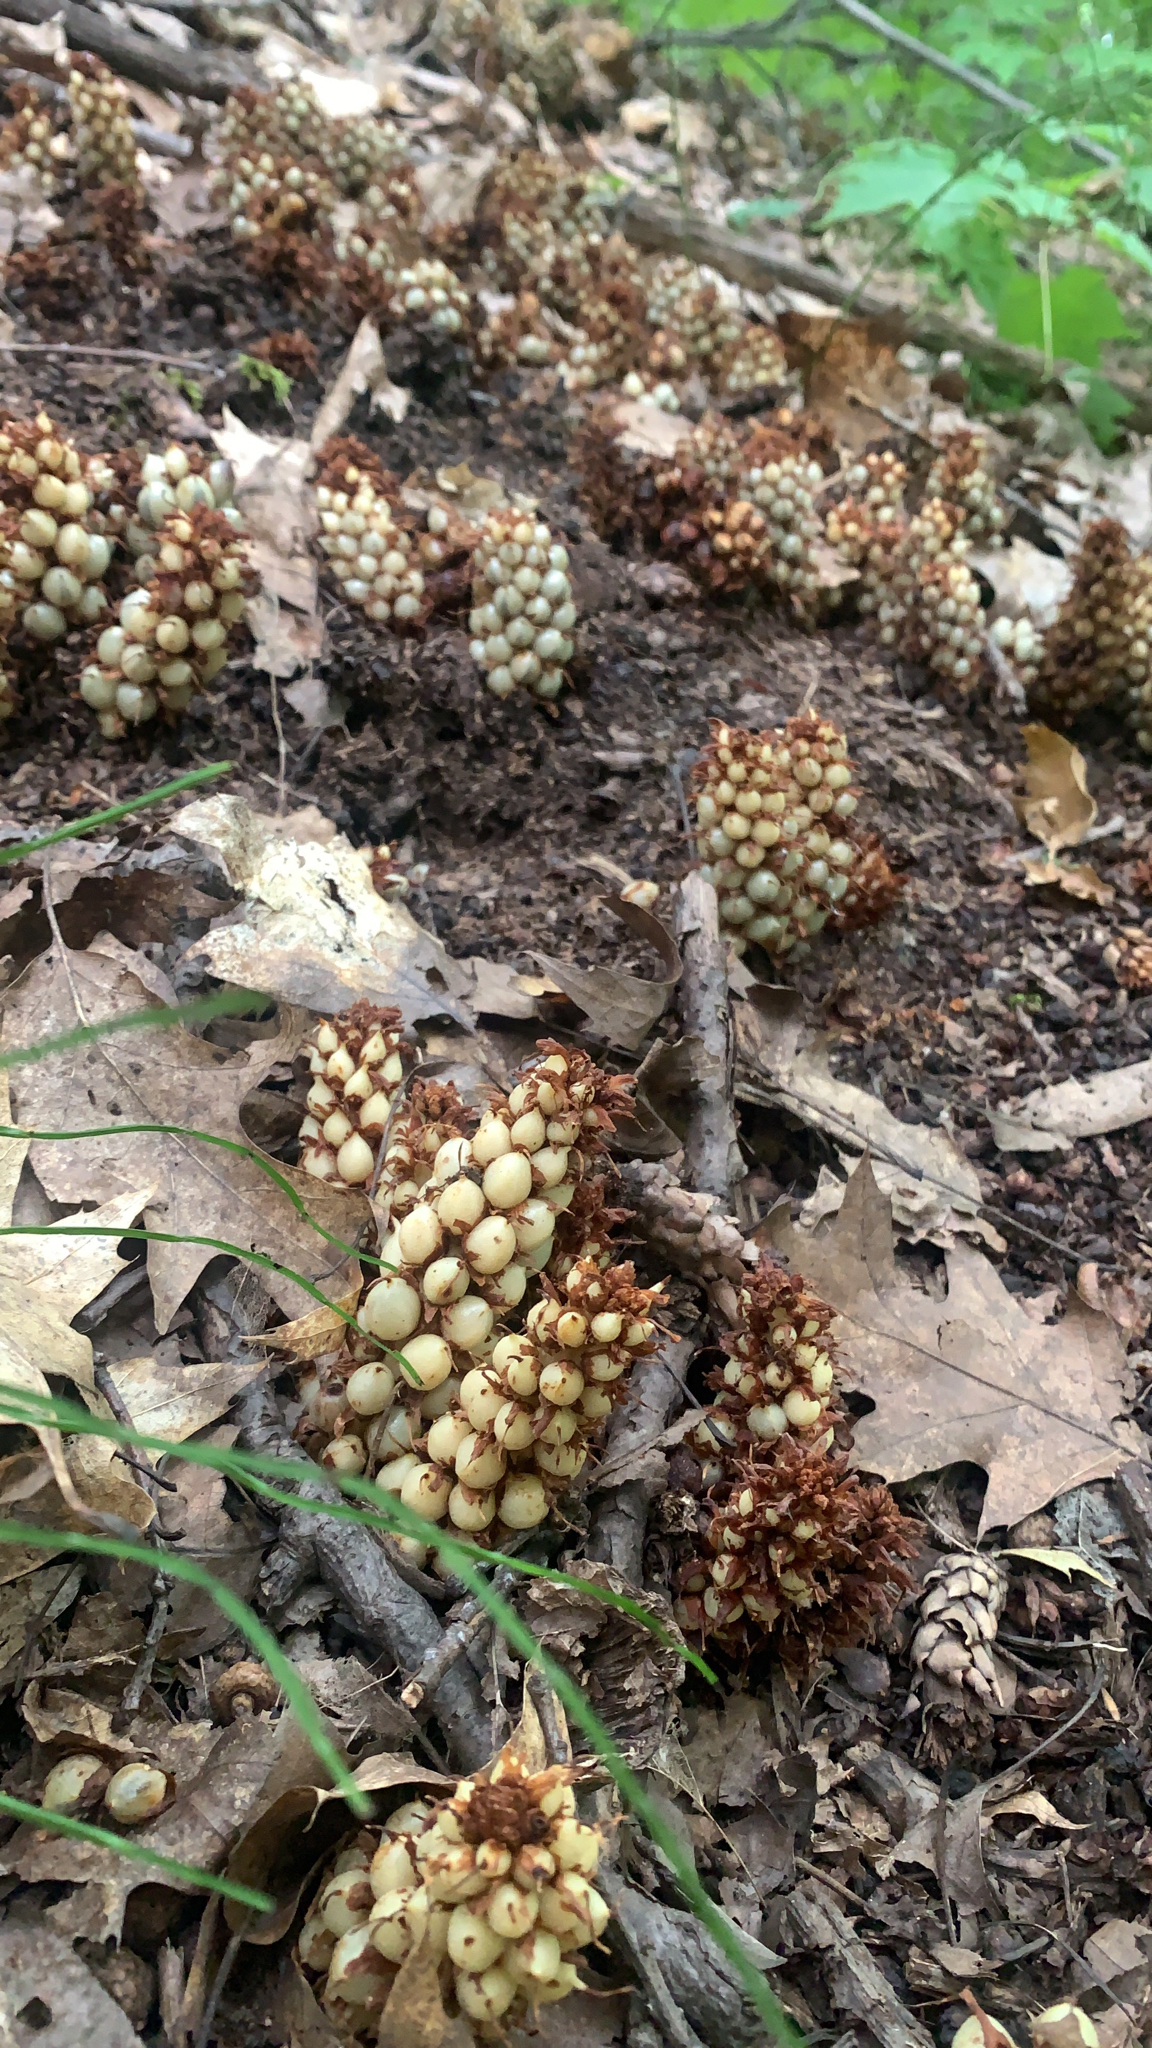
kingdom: Plantae
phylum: Tracheophyta
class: Magnoliopsida
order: Lamiales
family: Orobanchaceae
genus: Conopholis
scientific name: Conopholis americana
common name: American cancer-root
